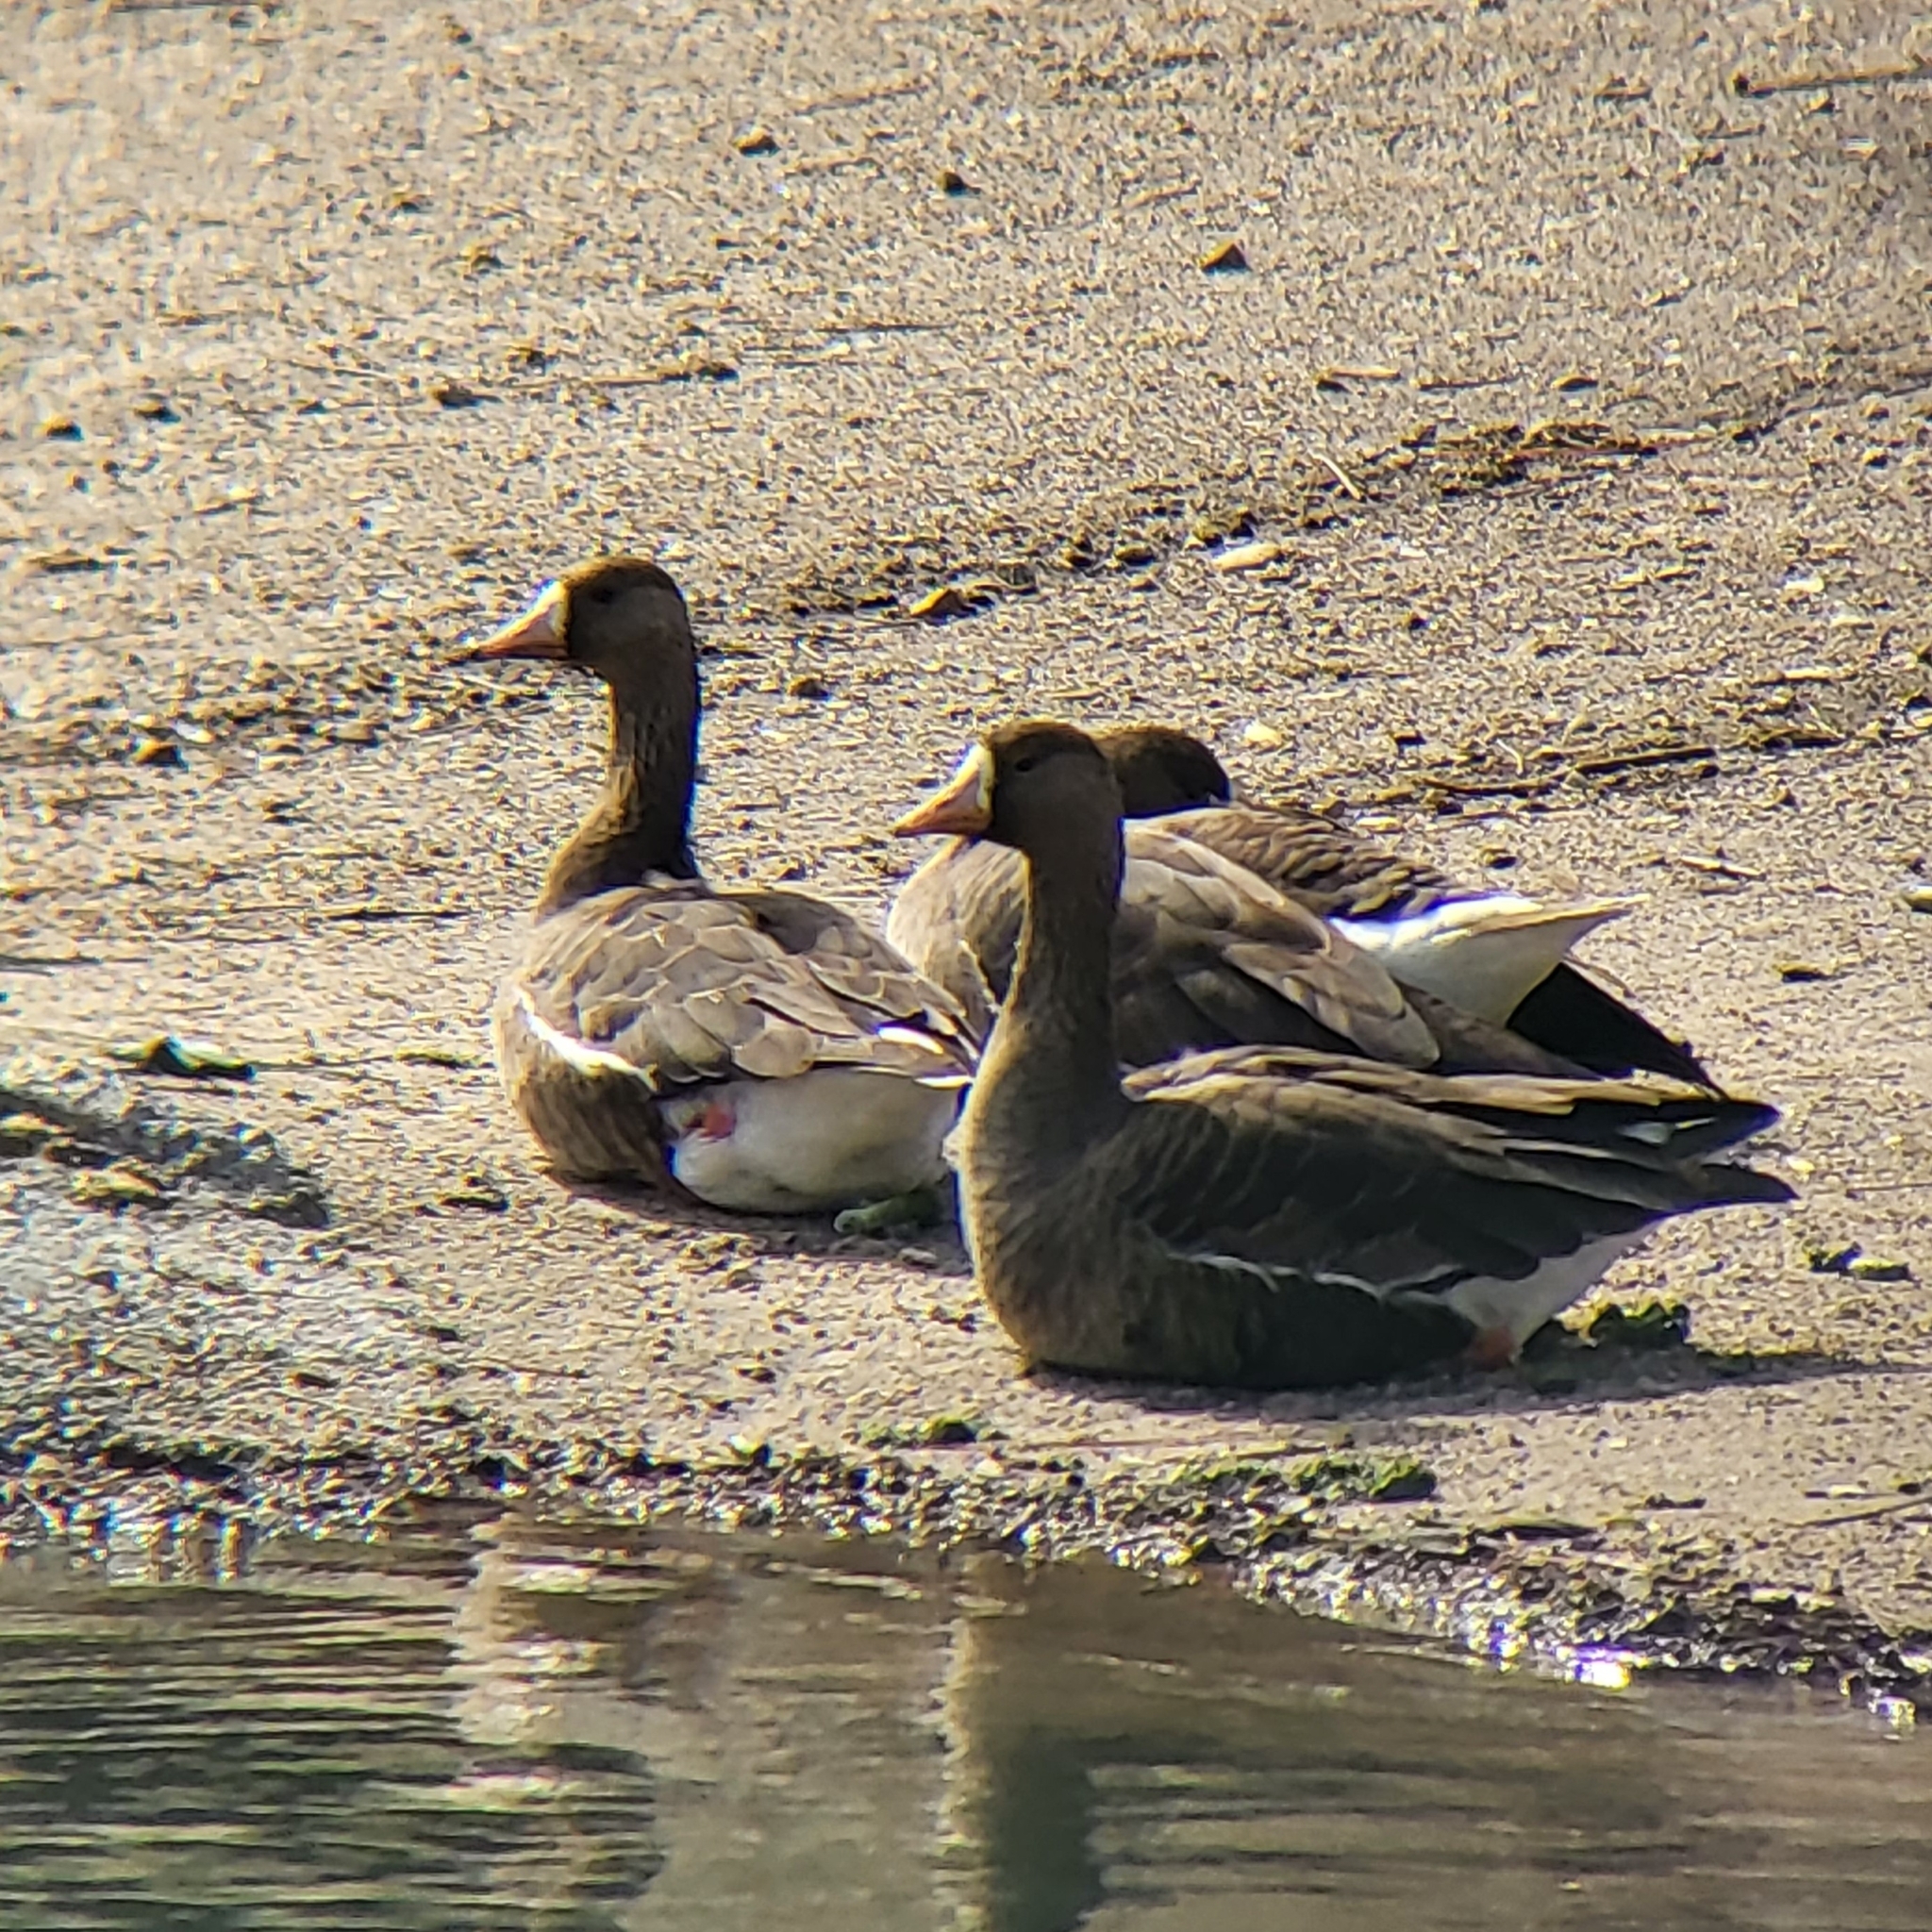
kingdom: Animalia
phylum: Chordata
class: Aves
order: Anseriformes
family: Anatidae
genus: Anser
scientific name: Anser albifrons
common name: Greater white-fronted goose
